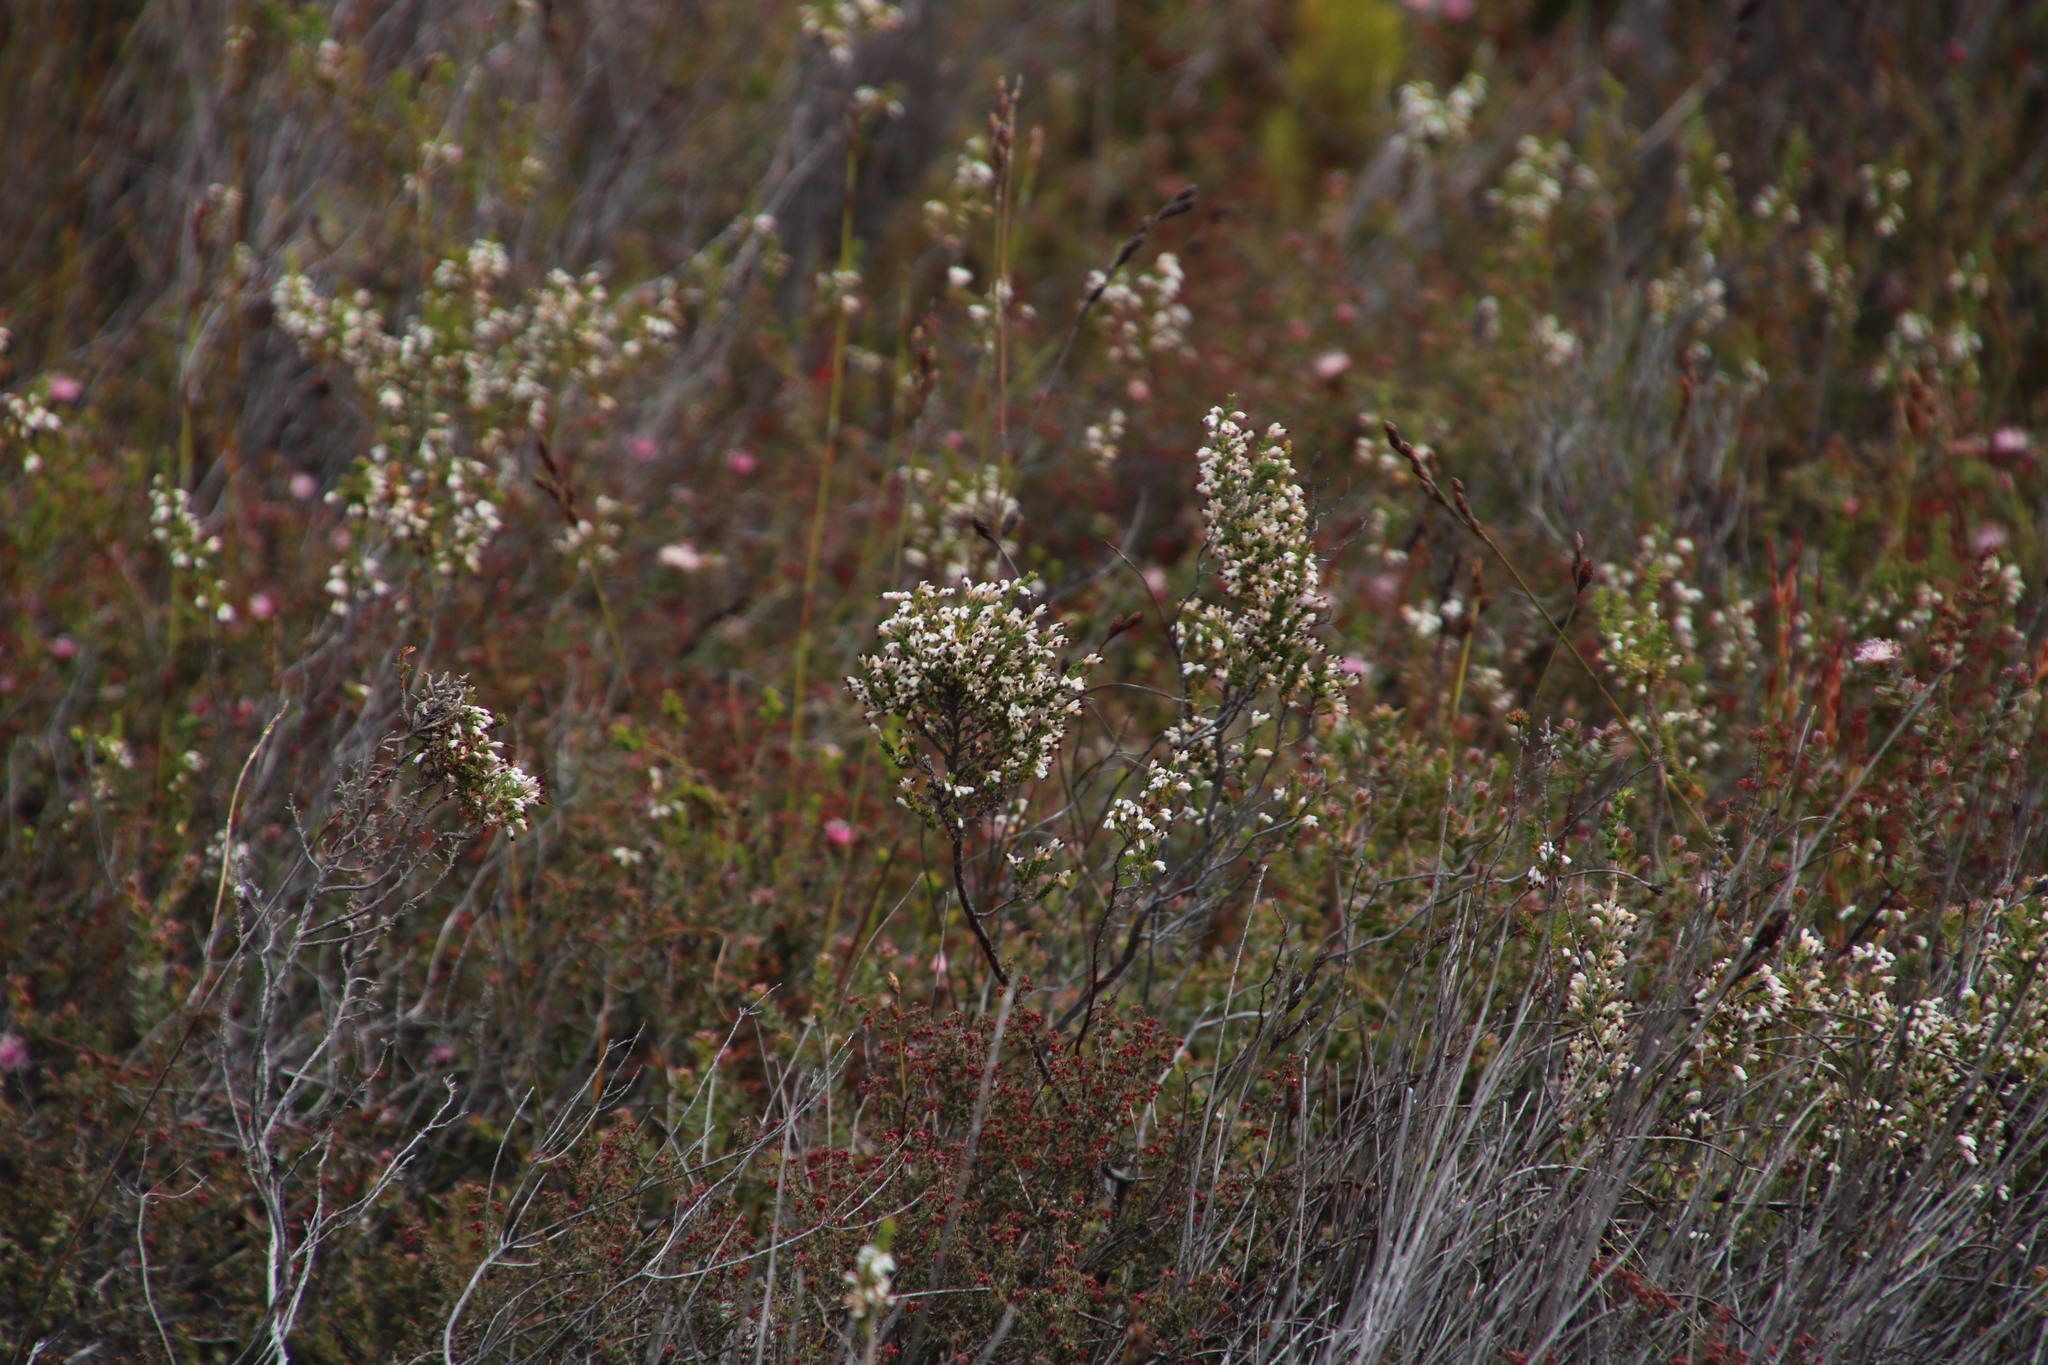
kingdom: Plantae
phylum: Tracheophyta
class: Magnoliopsida
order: Ericales
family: Ericaceae
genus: Erica
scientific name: Erica imbricata
